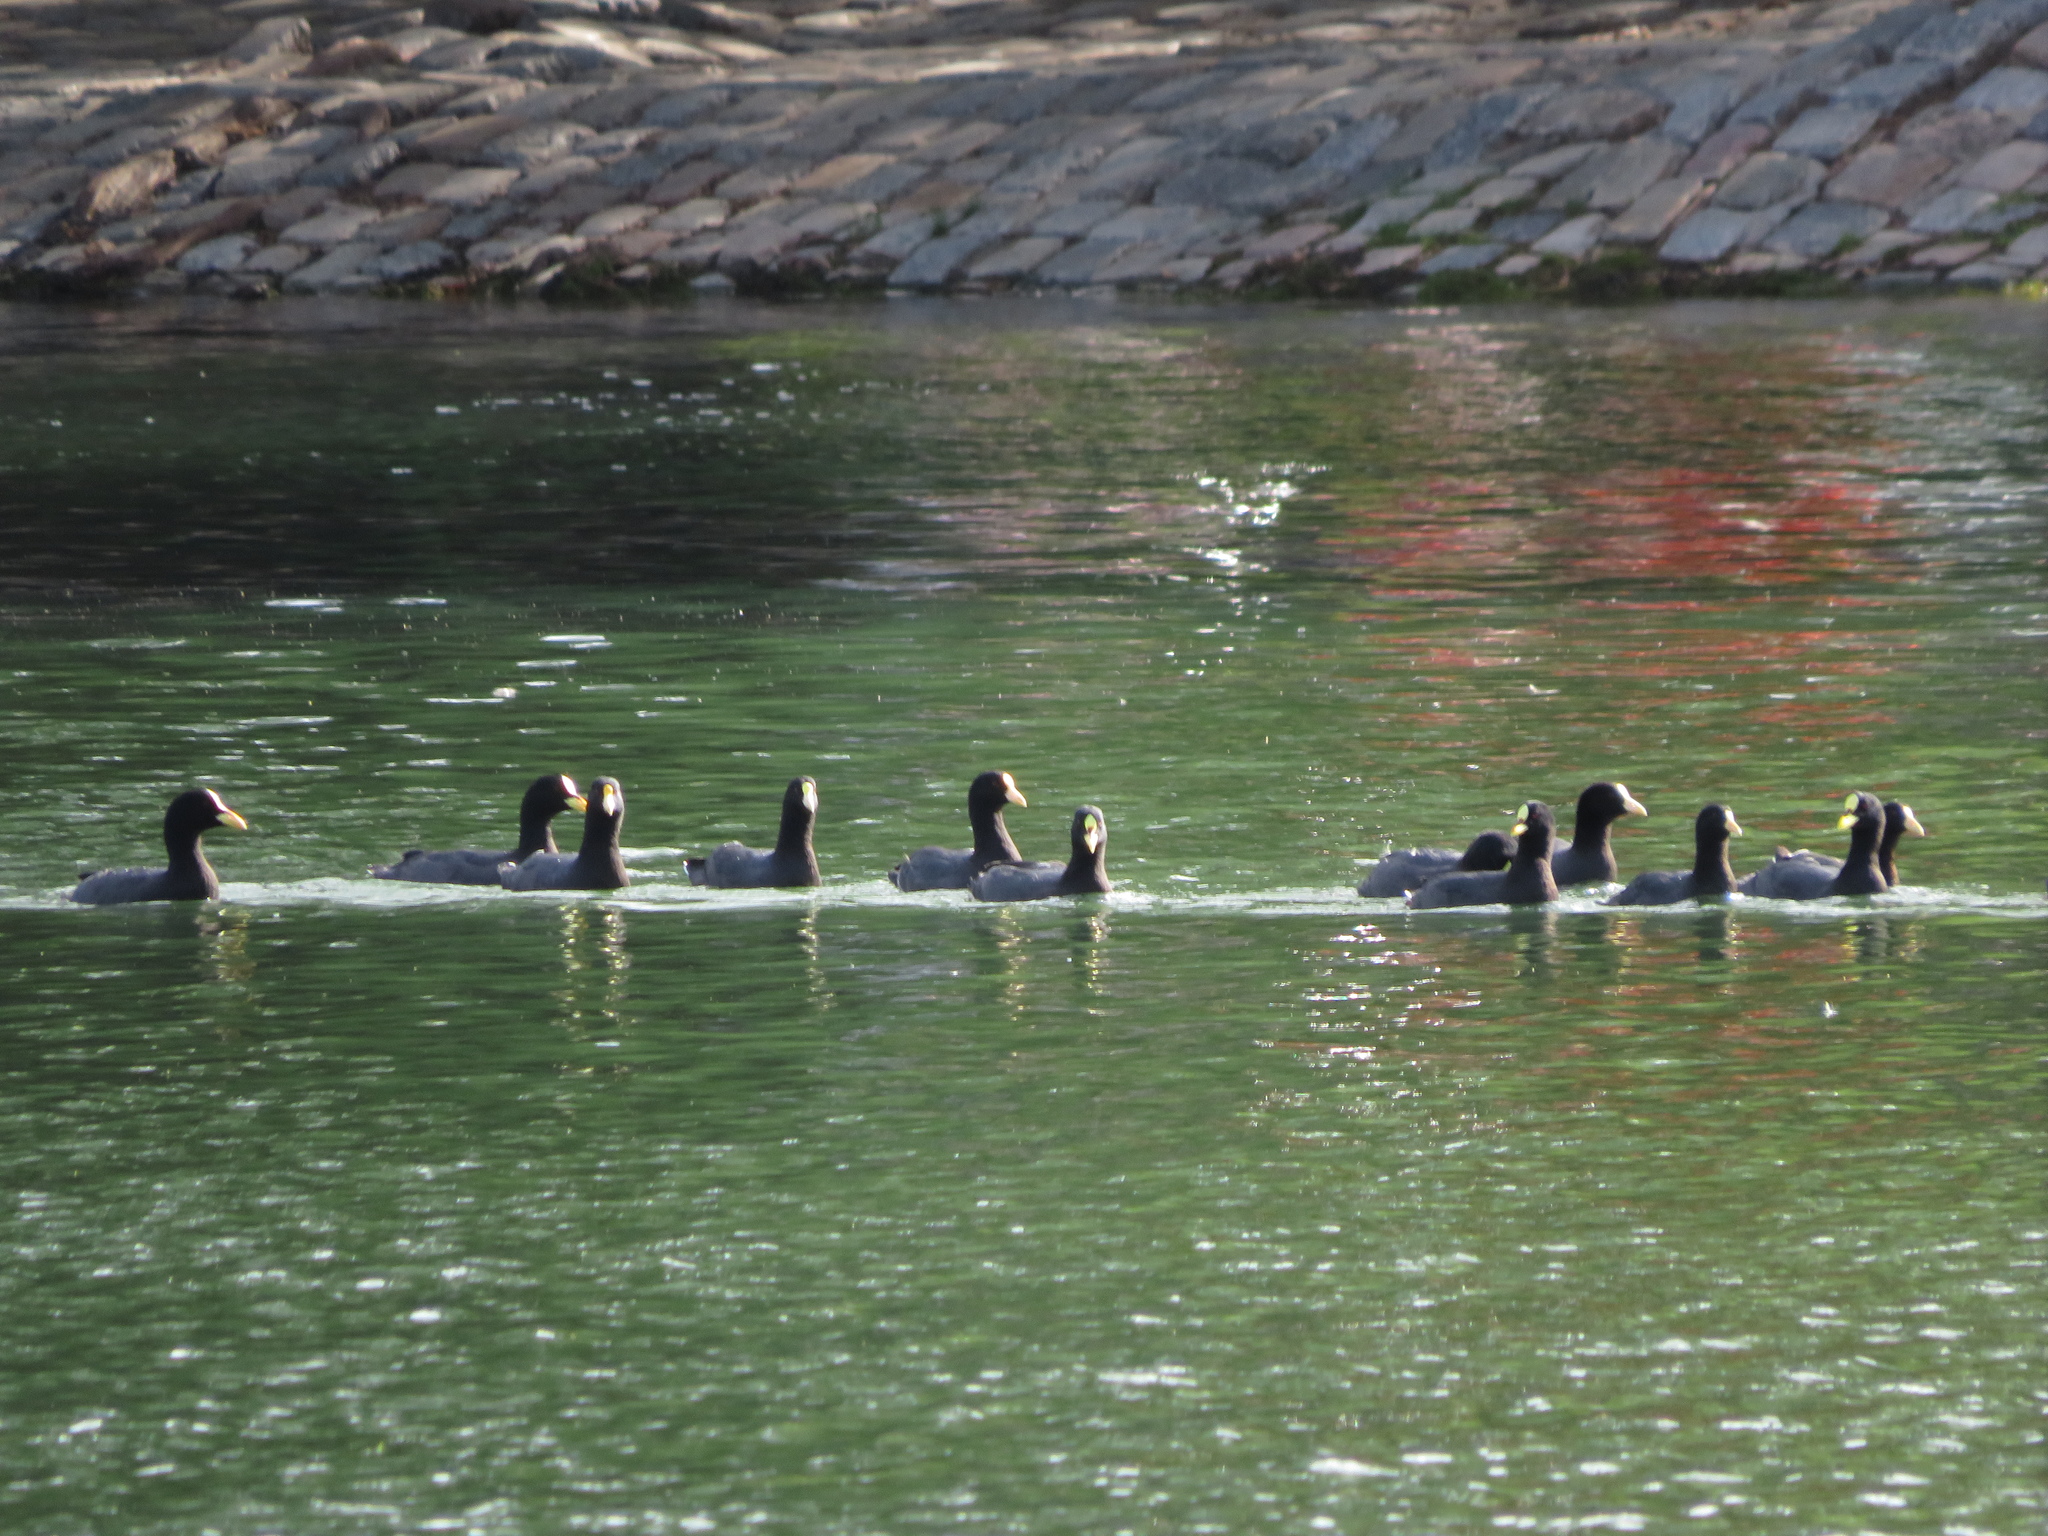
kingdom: Animalia
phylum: Chordata
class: Aves
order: Gruiformes
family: Rallidae
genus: Fulica
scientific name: Fulica leucoptera
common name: White-winged coot
